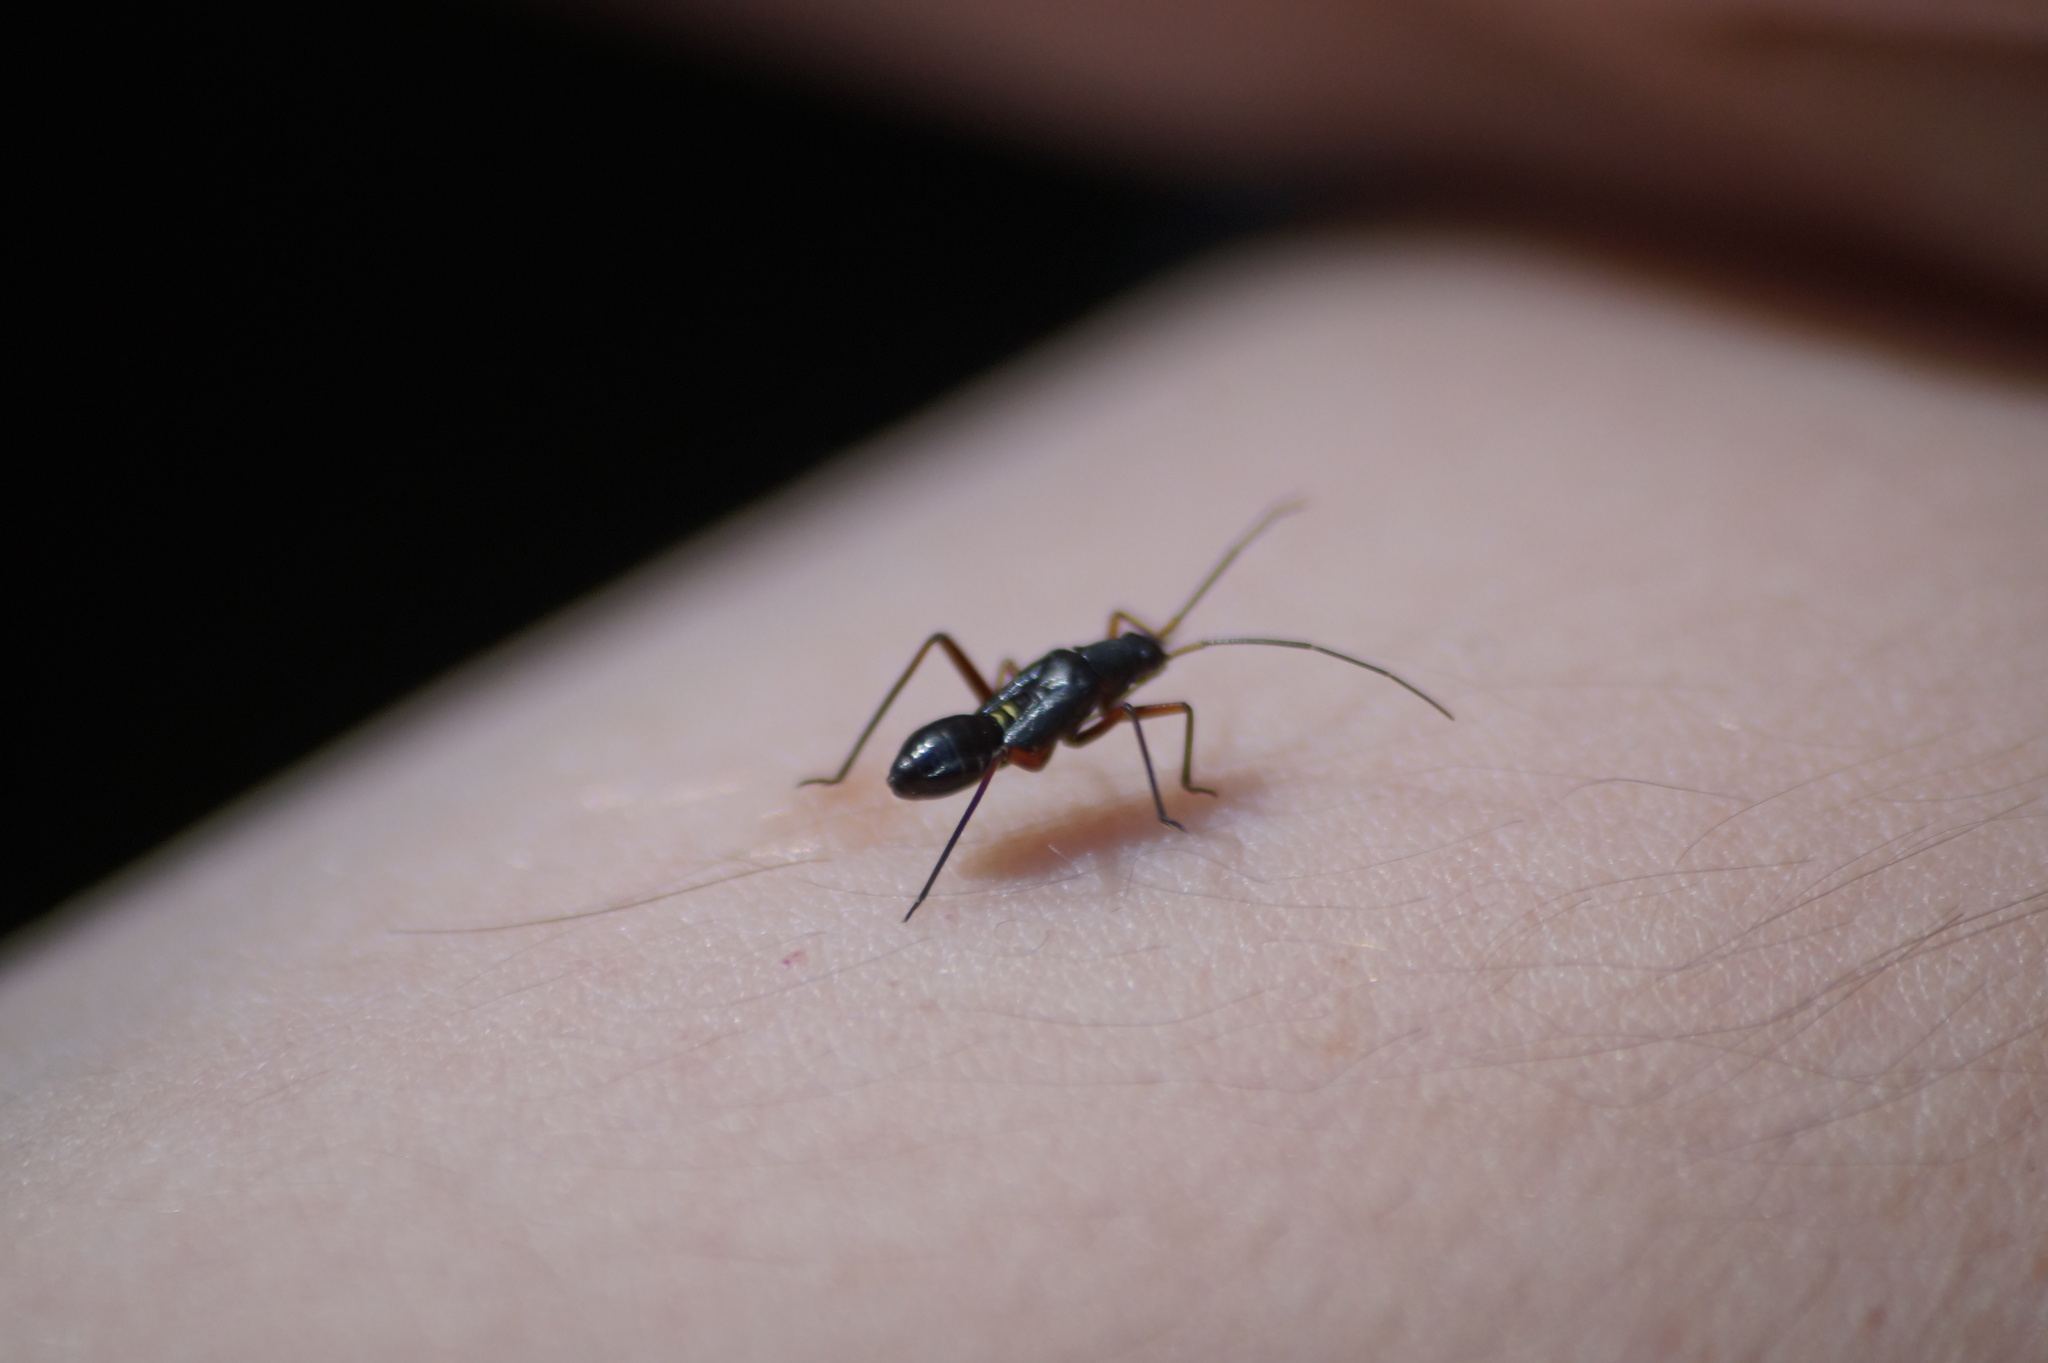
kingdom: Animalia
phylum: Arthropoda
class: Insecta
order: Hemiptera
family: Miridae
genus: Miris
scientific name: Miris striatus
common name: Fine streaked bugkin
